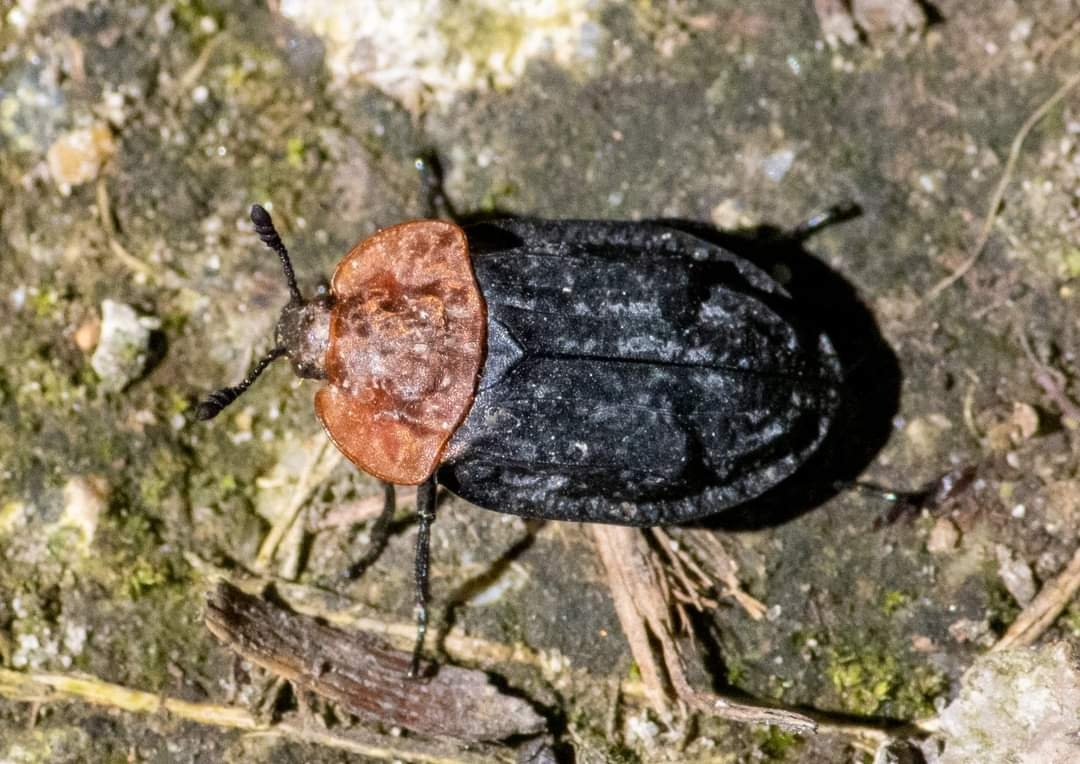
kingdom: Animalia
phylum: Arthropoda
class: Insecta
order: Coleoptera
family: Staphylinidae
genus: Oiceoptoma
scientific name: Oiceoptoma thoracicum
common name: Red-breasted carrion beetle
